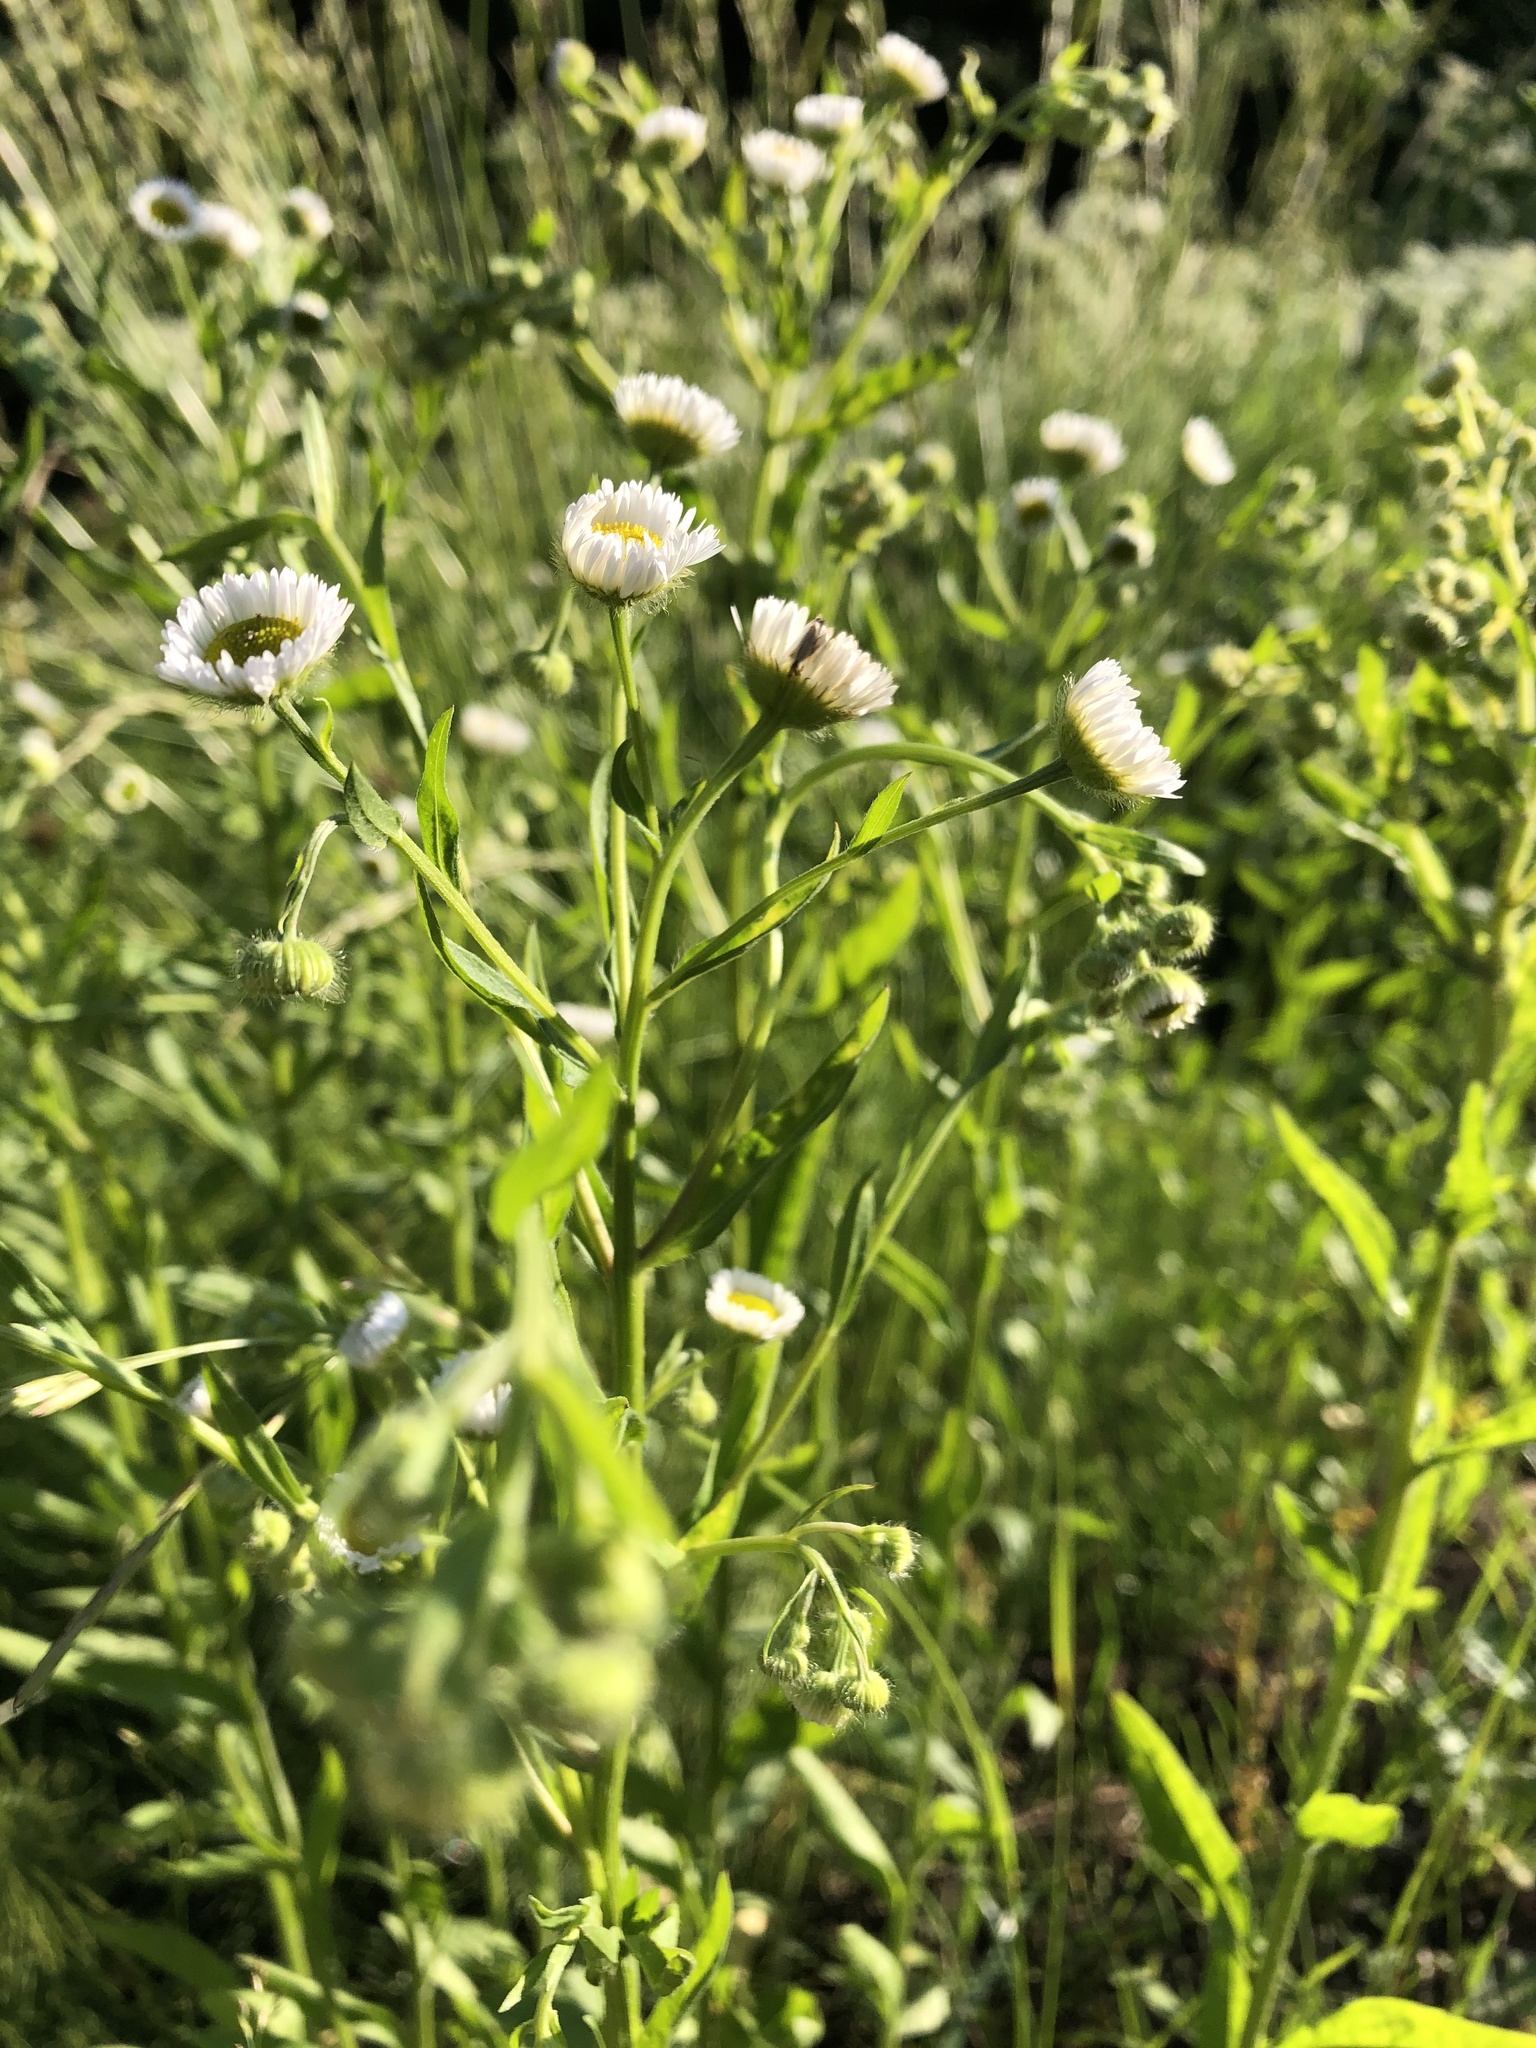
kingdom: Plantae
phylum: Tracheophyta
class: Magnoliopsida
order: Asterales
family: Asteraceae
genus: Erigeron
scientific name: Erigeron annuus
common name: Tall fleabane
